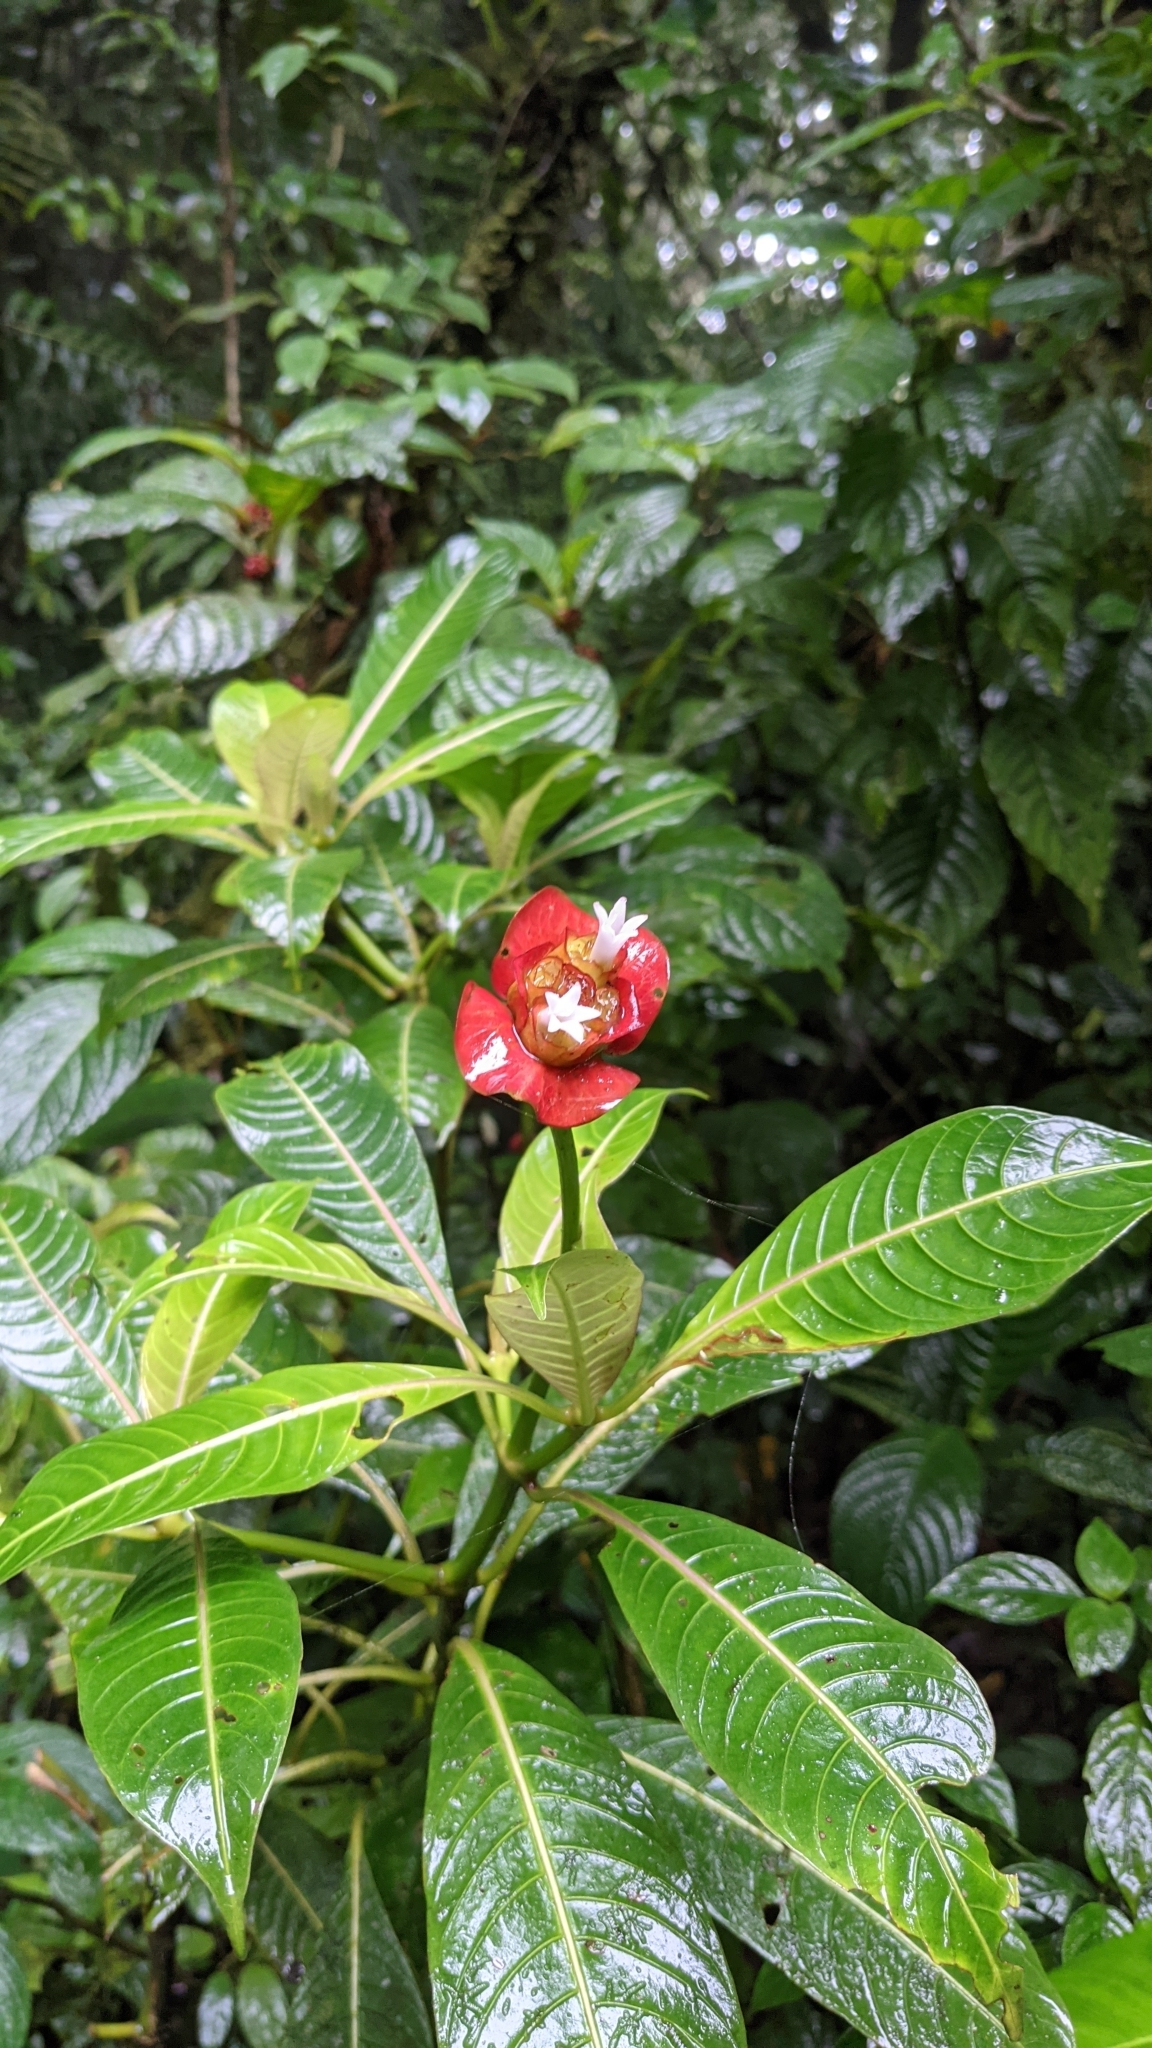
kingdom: Plantae
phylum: Tracheophyta
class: Magnoliopsida
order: Gentianales
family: Rubiaceae
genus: Palicourea
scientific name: Palicourea elata
